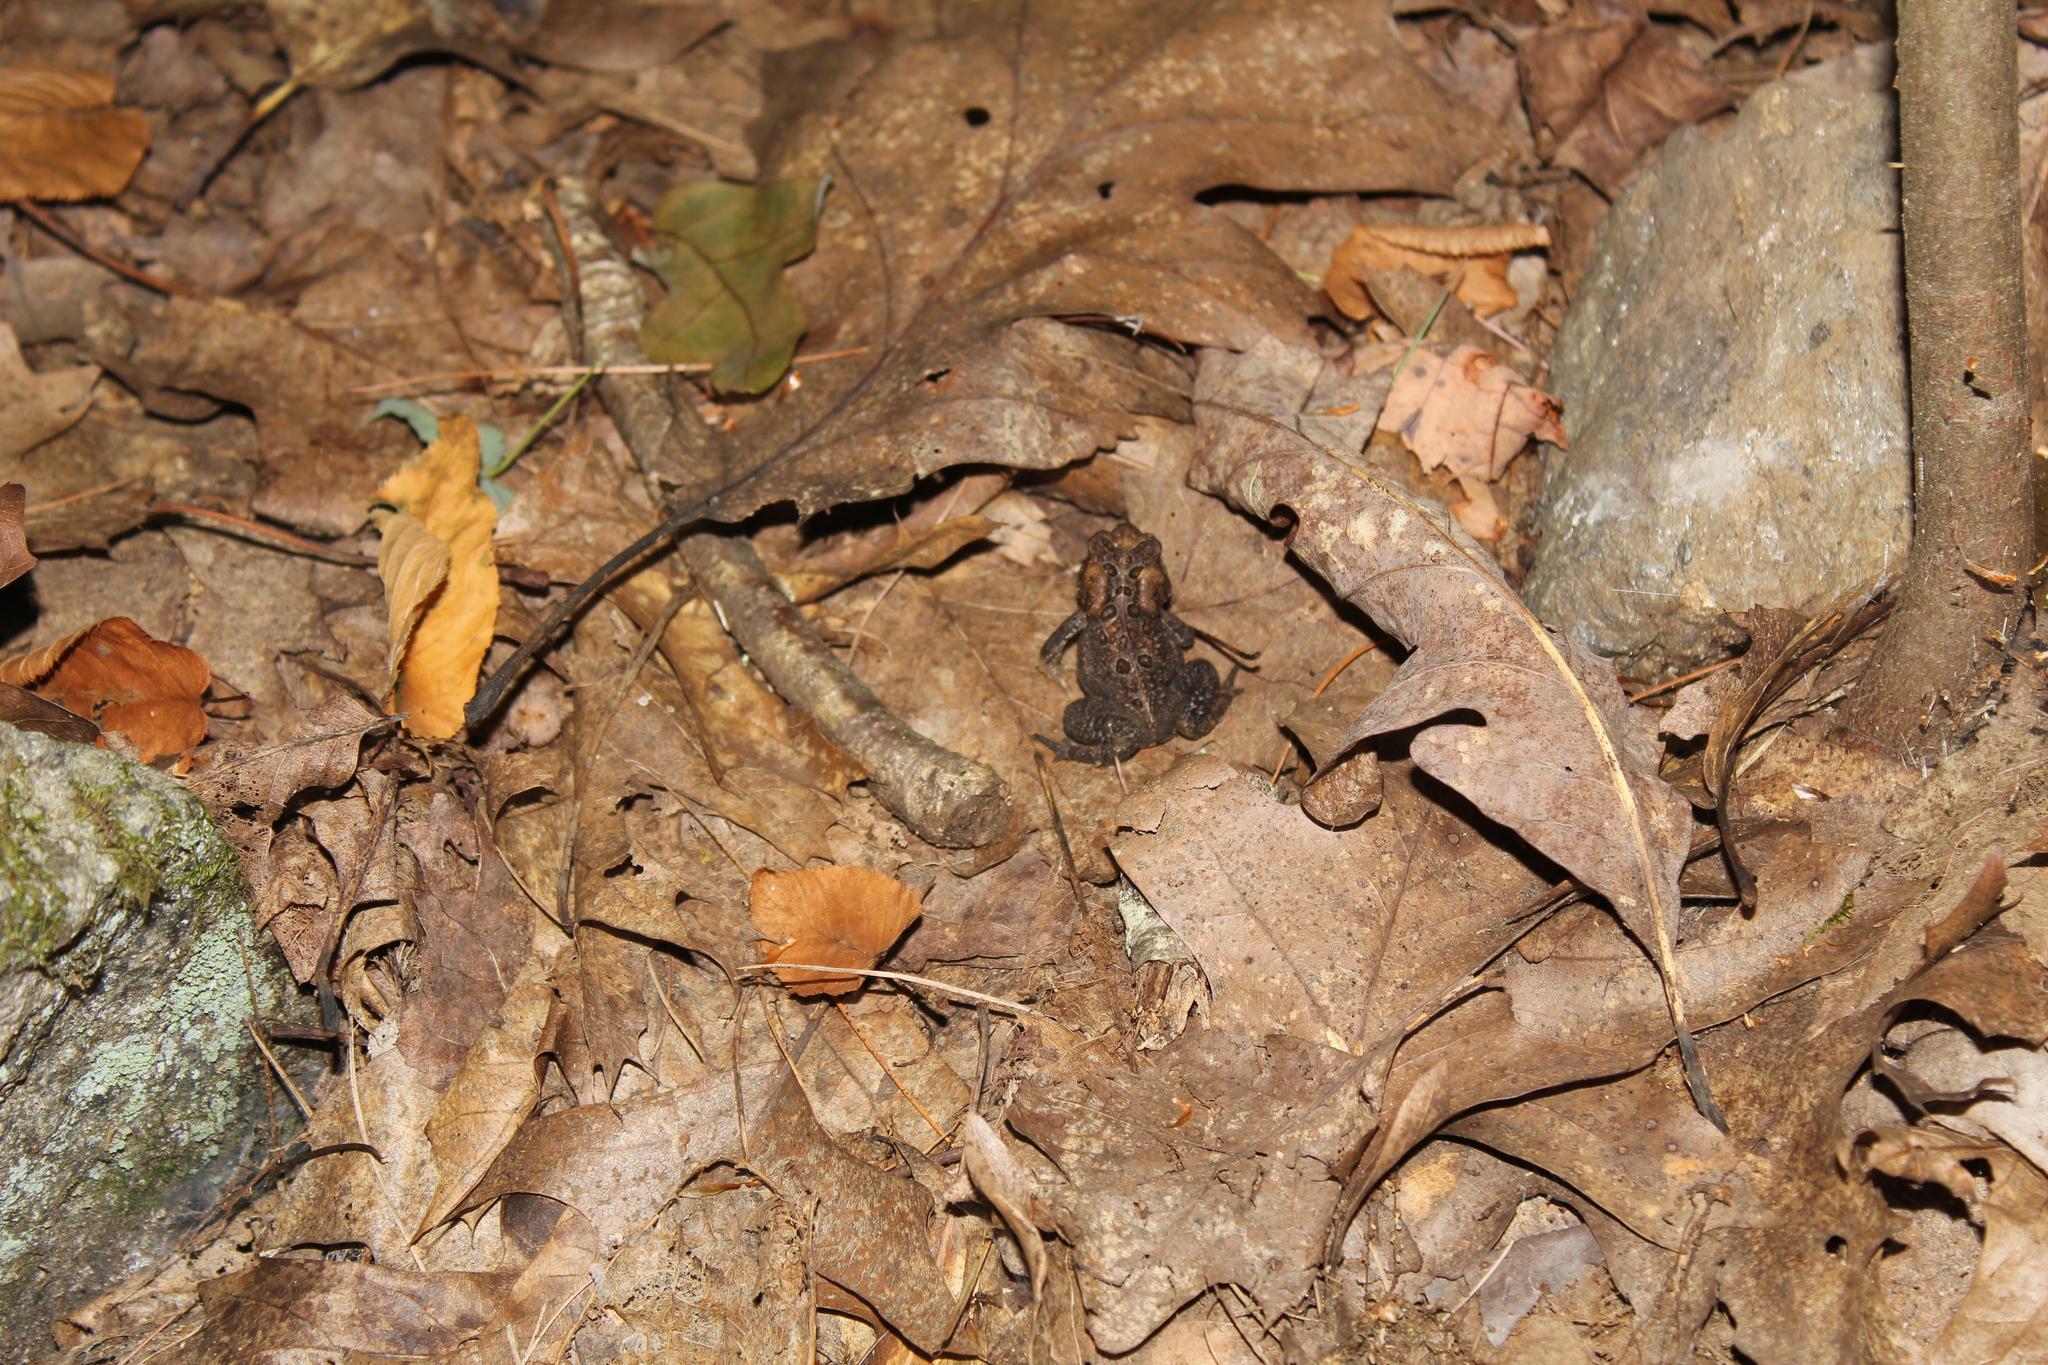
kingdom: Animalia
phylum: Chordata
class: Amphibia
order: Anura
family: Bufonidae
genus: Anaxyrus
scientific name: Anaxyrus americanus
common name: American toad
